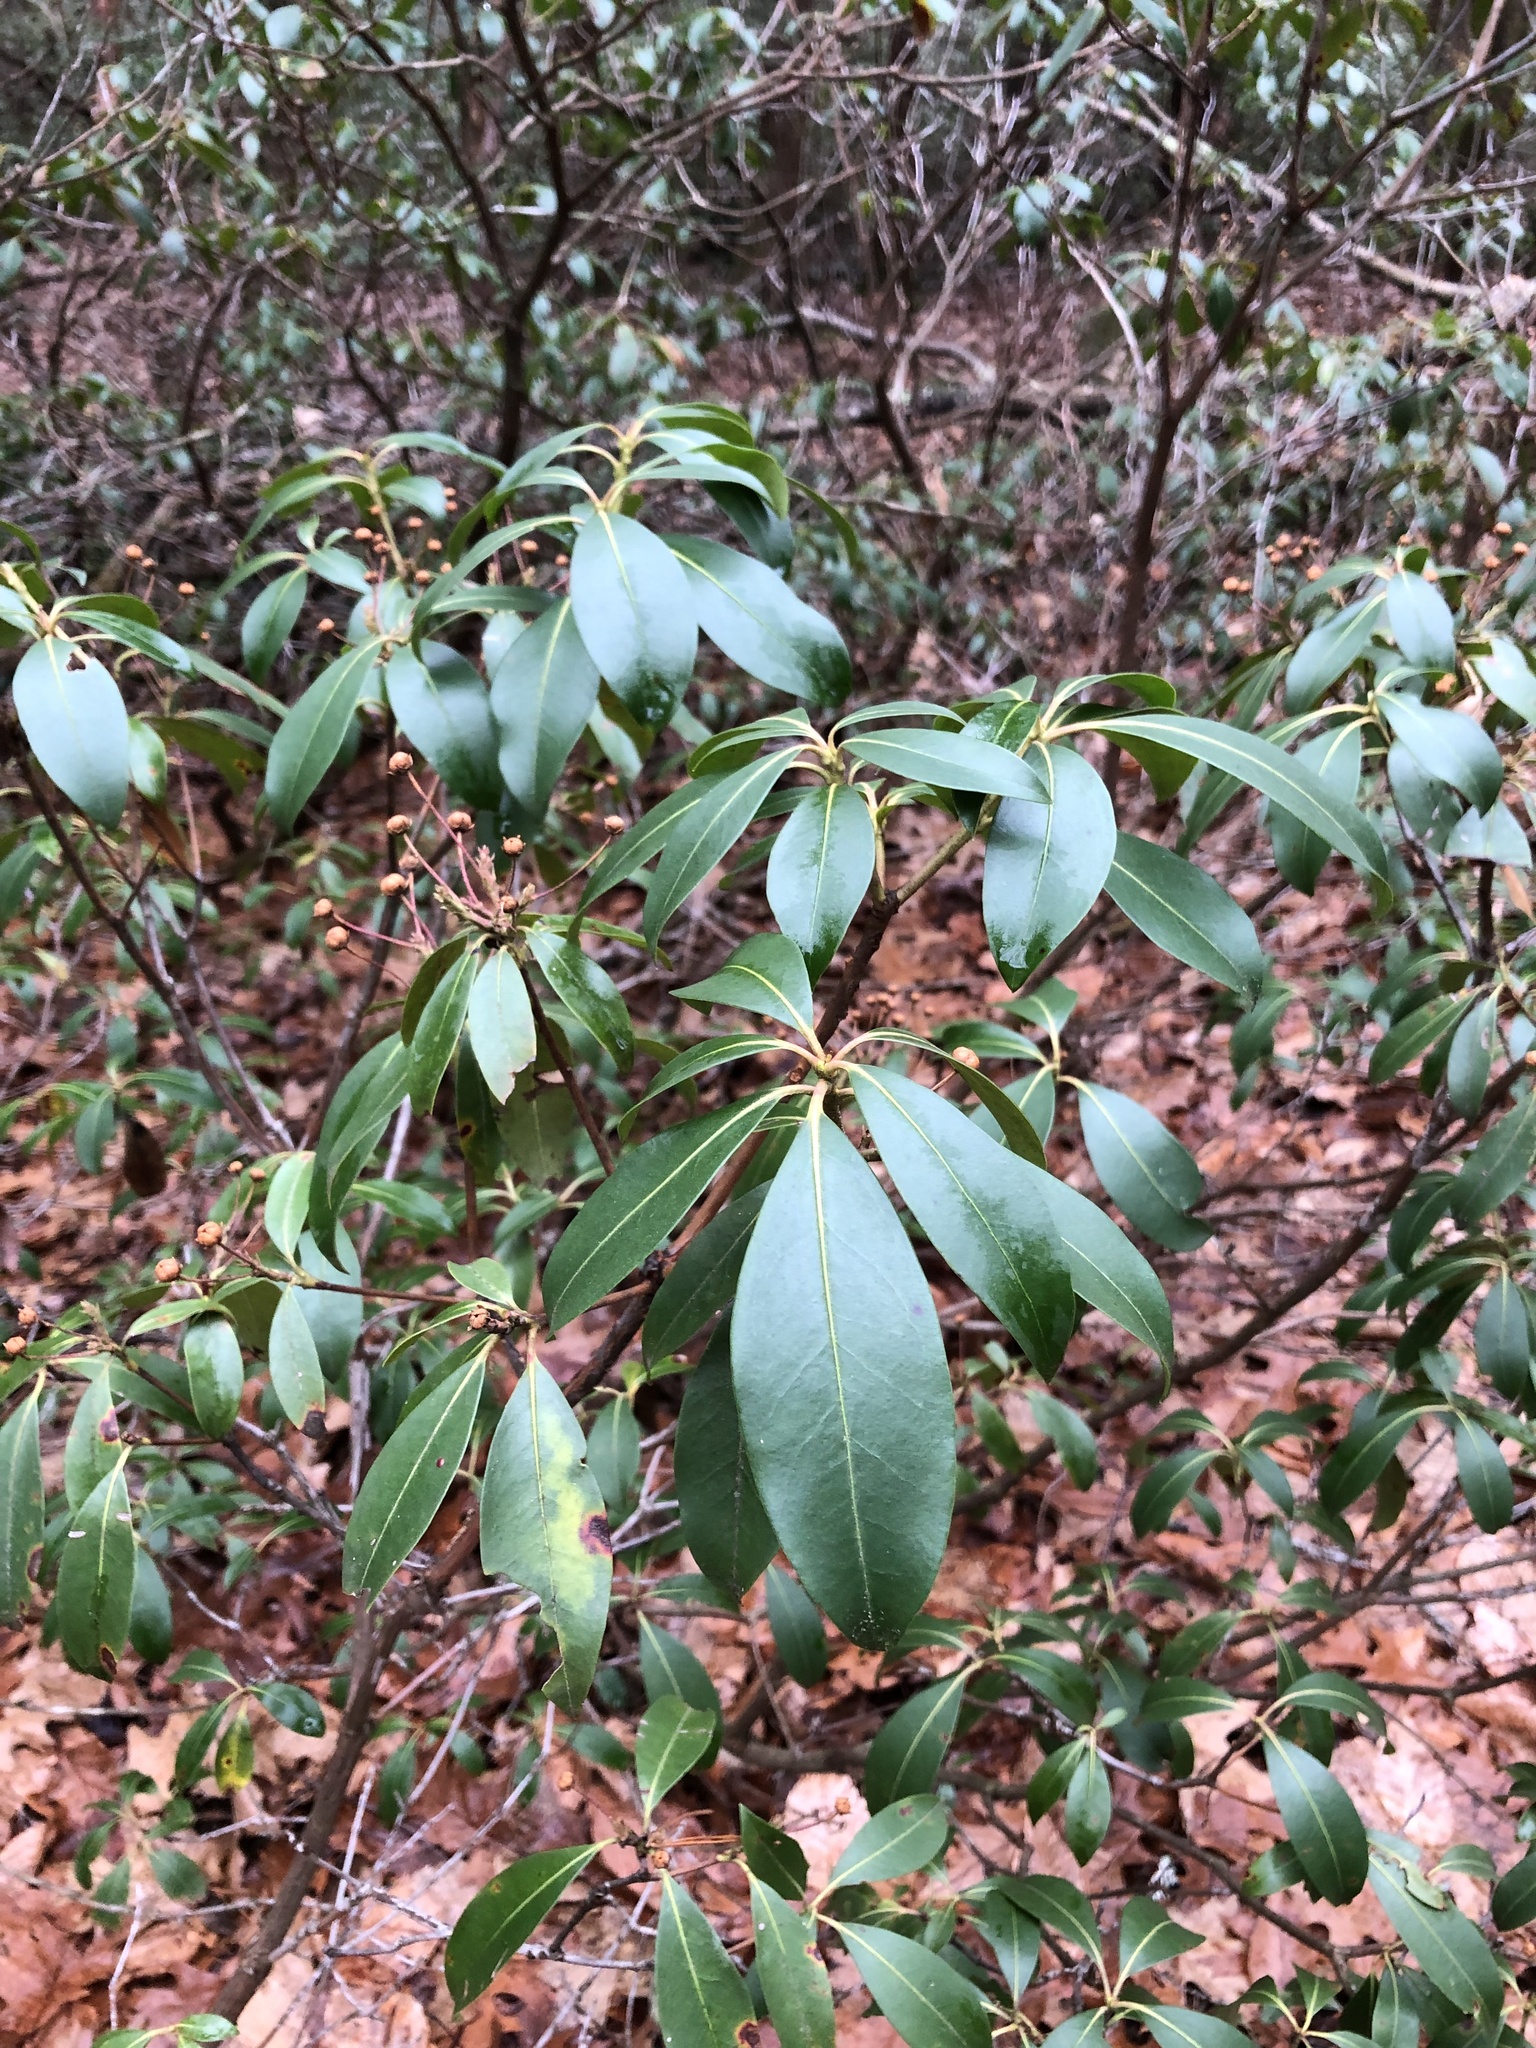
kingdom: Plantae
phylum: Tracheophyta
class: Magnoliopsida
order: Ericales
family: Ericaceae
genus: Kalmia
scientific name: Kalmia latifolia
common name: Mountain-laurel
